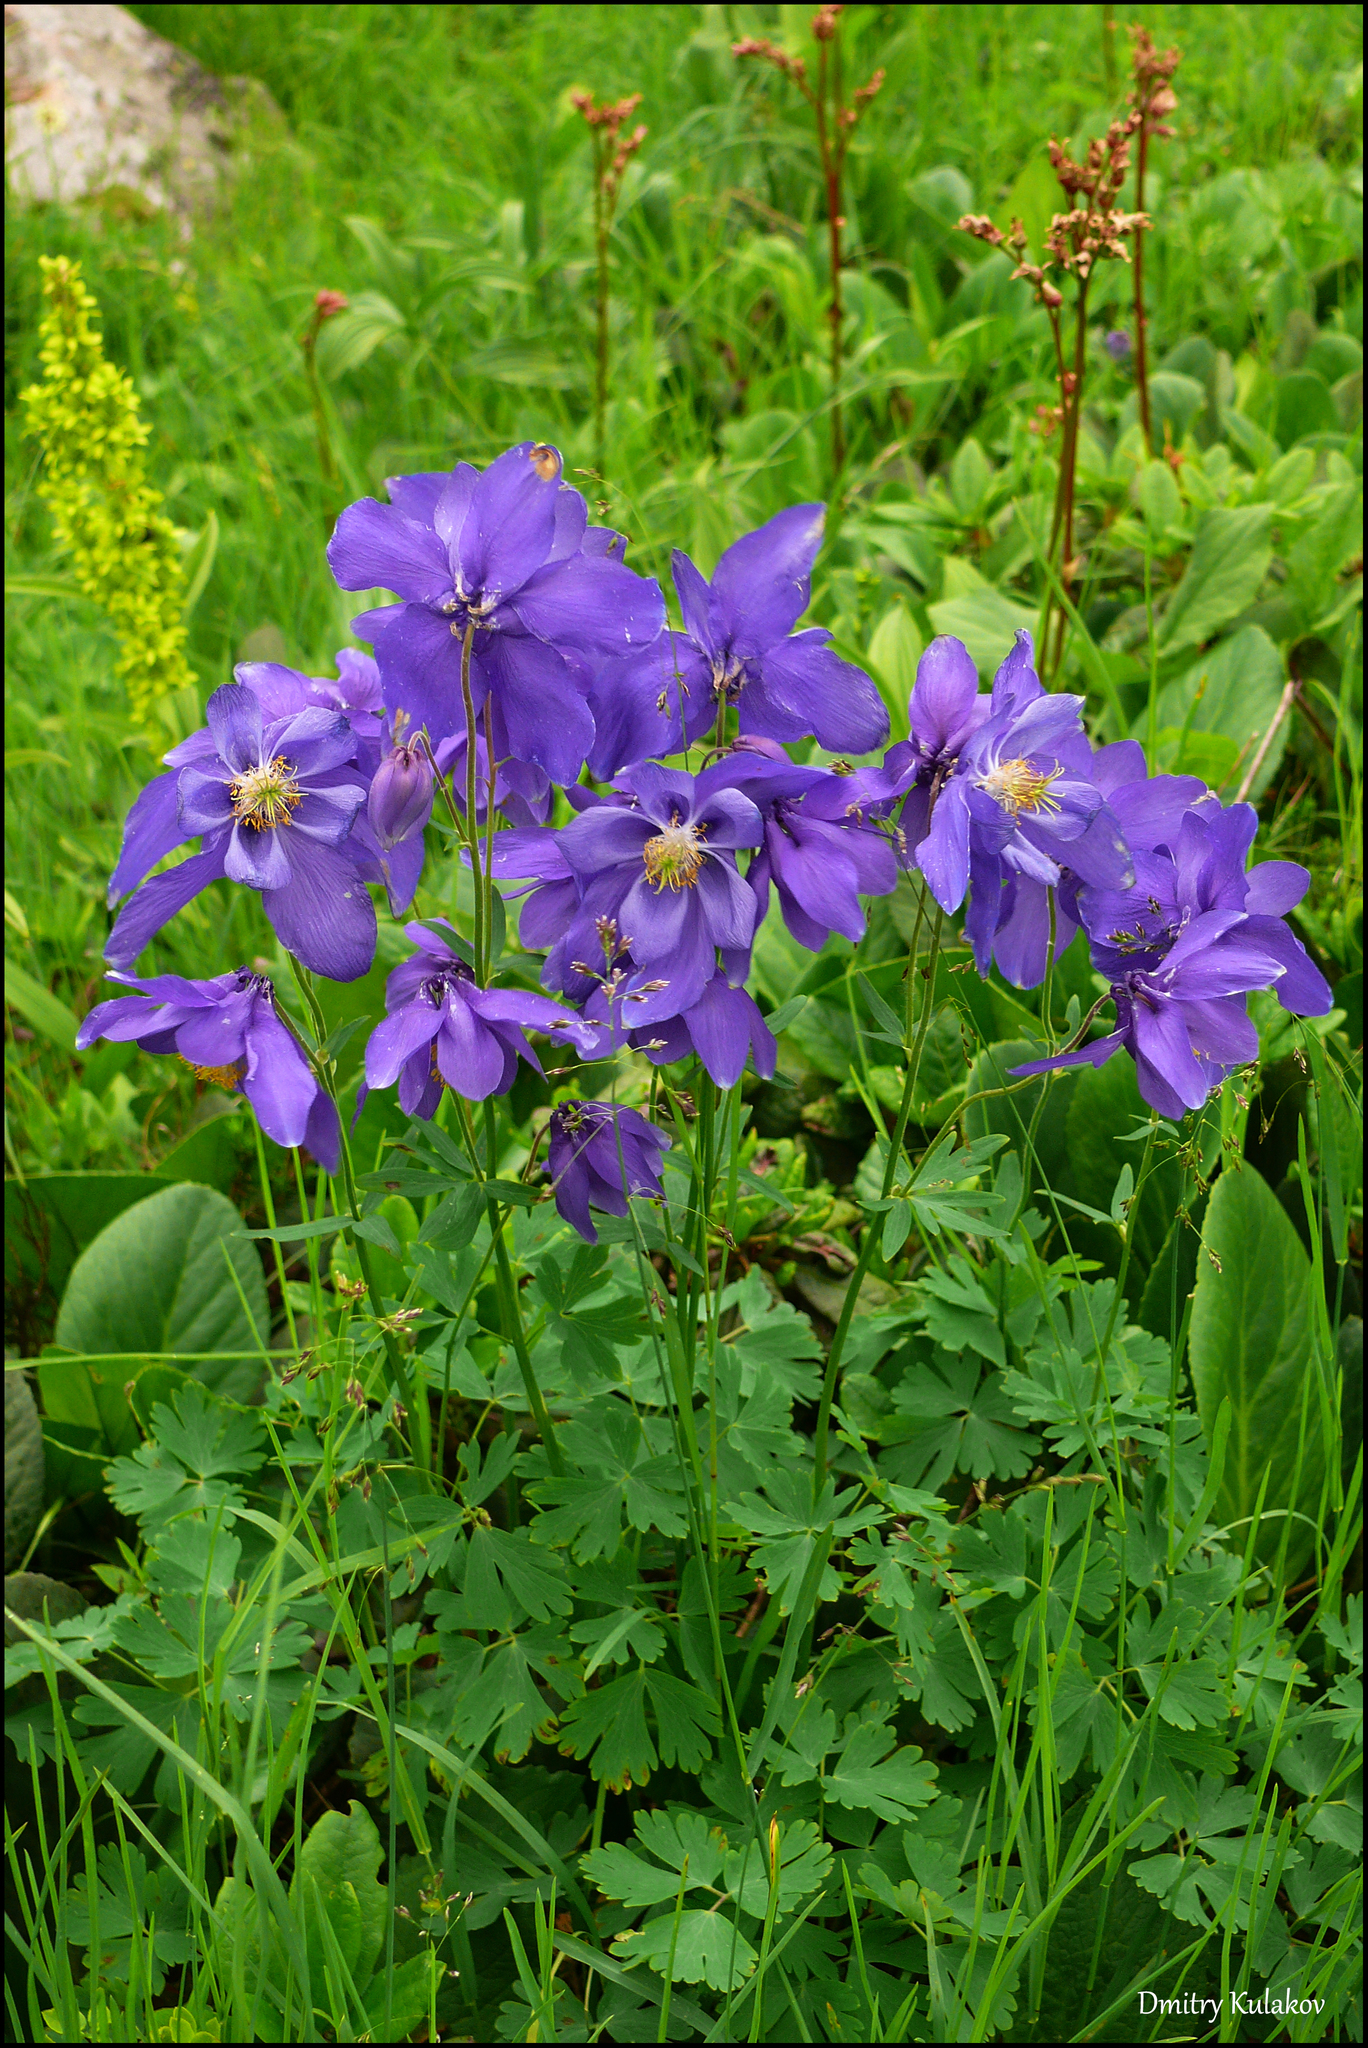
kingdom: Plantae
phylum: Tracheophyta
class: Magnoliopsida
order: Ranunculales
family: Ranunculaceae
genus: Aquilegia
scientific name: Aquilegia glandulosa
